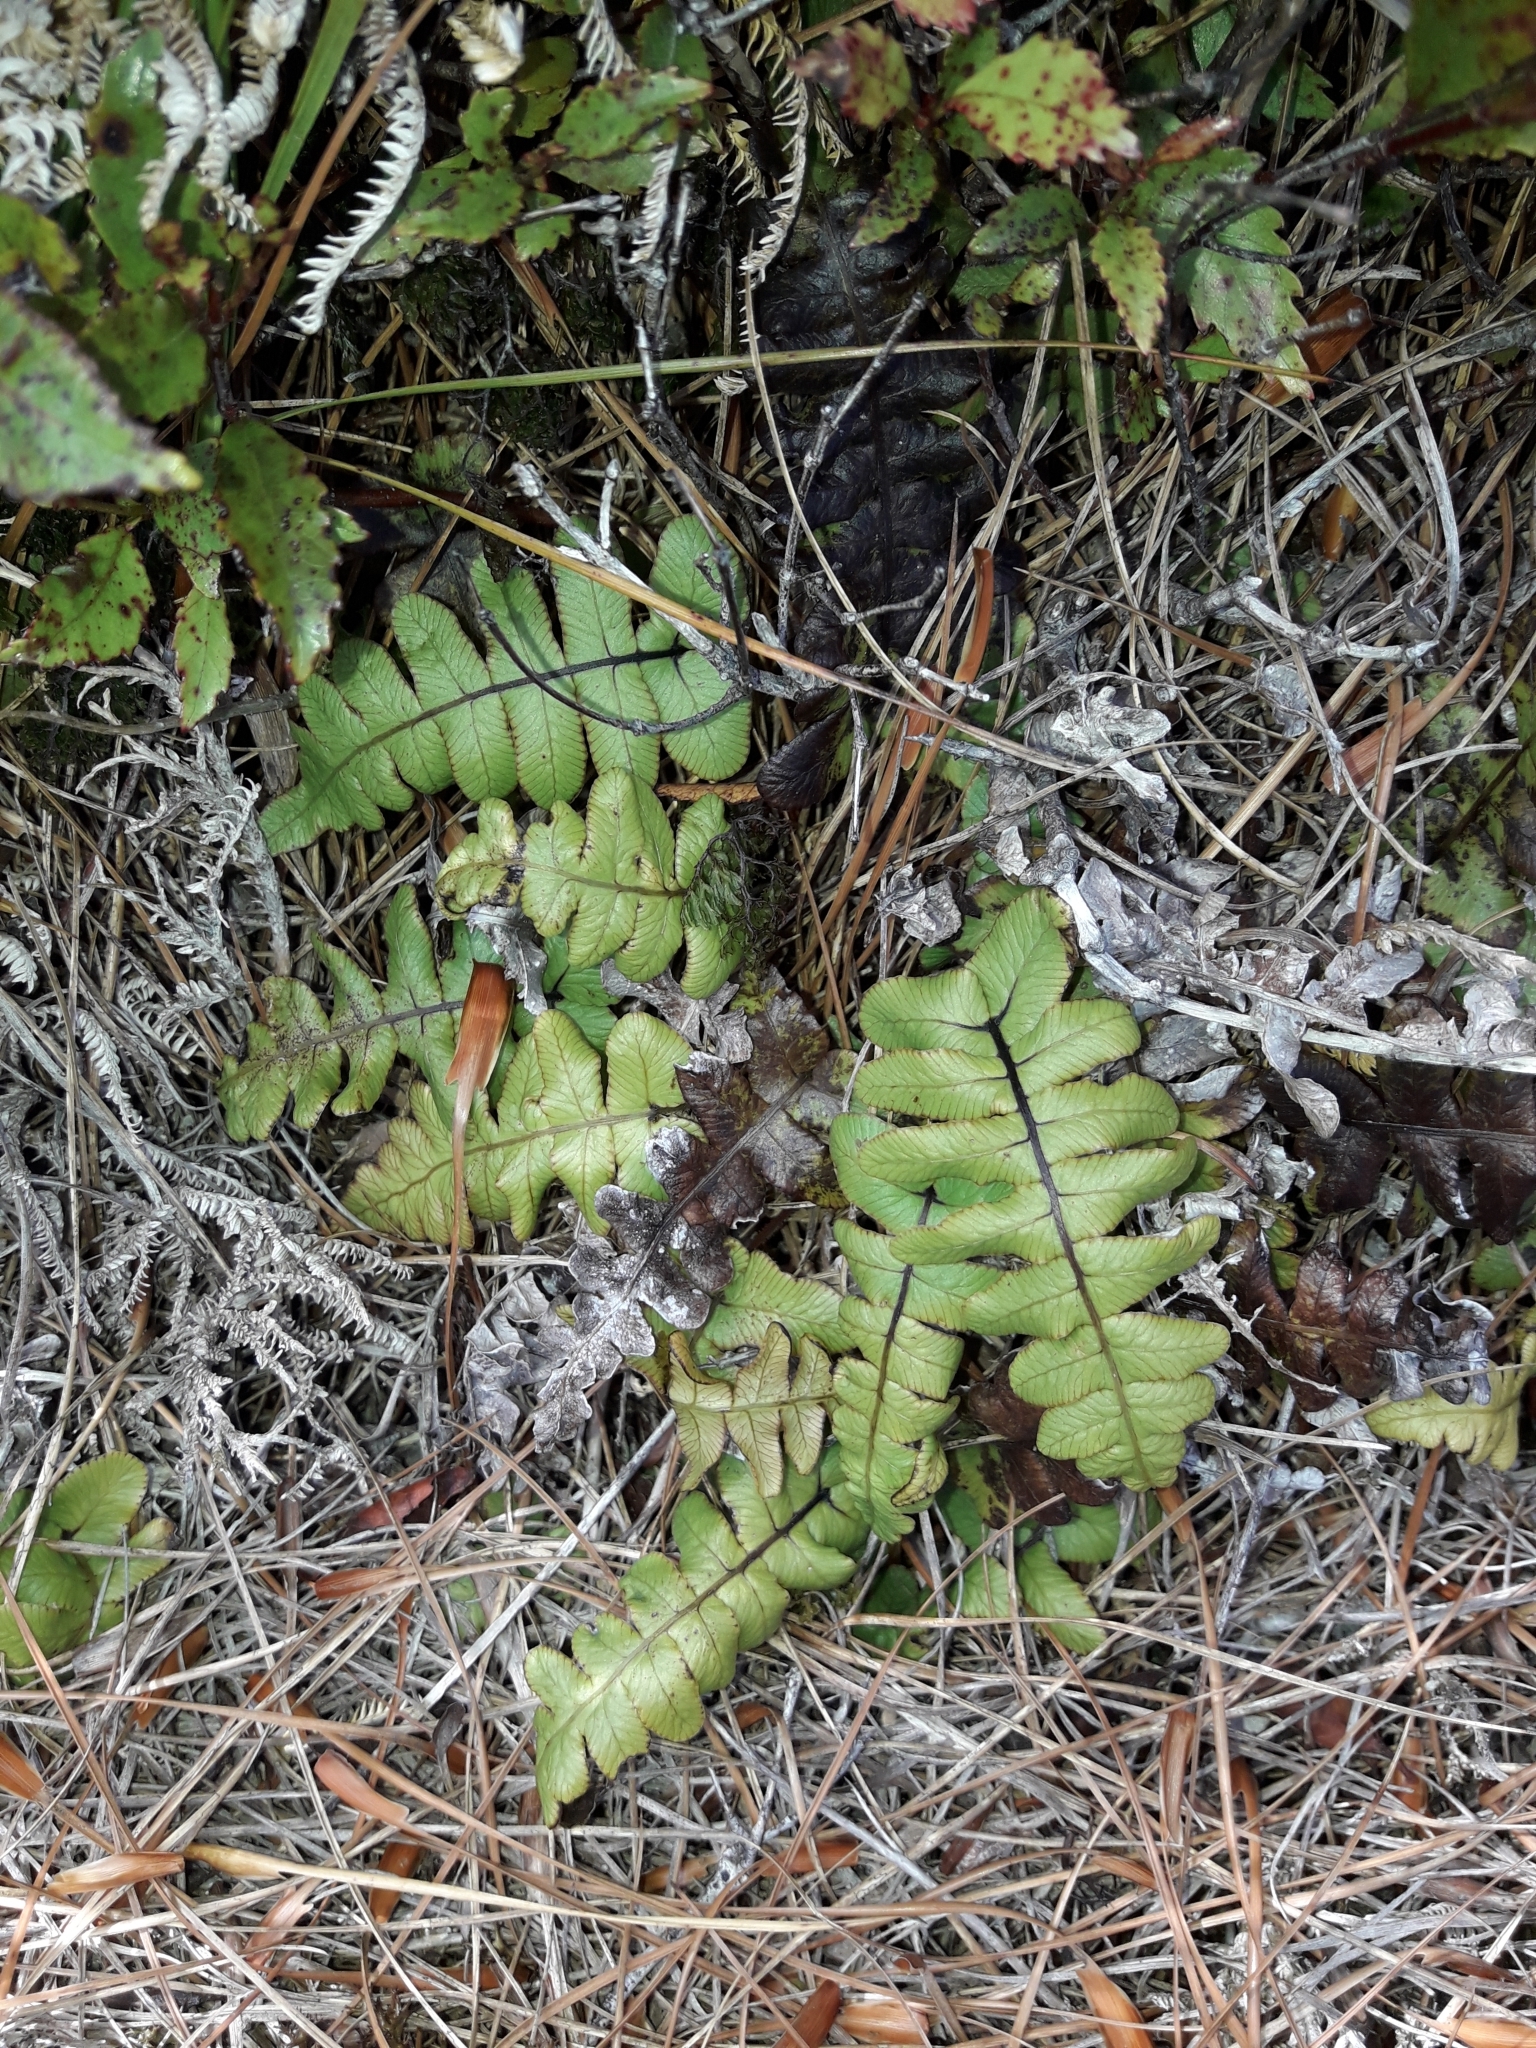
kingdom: Plantae
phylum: Tracheophyta
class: Polypodiopsida
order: Polypodiales
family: Blechnaceae
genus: Cranfillia
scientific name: Cranfillia deltoides
